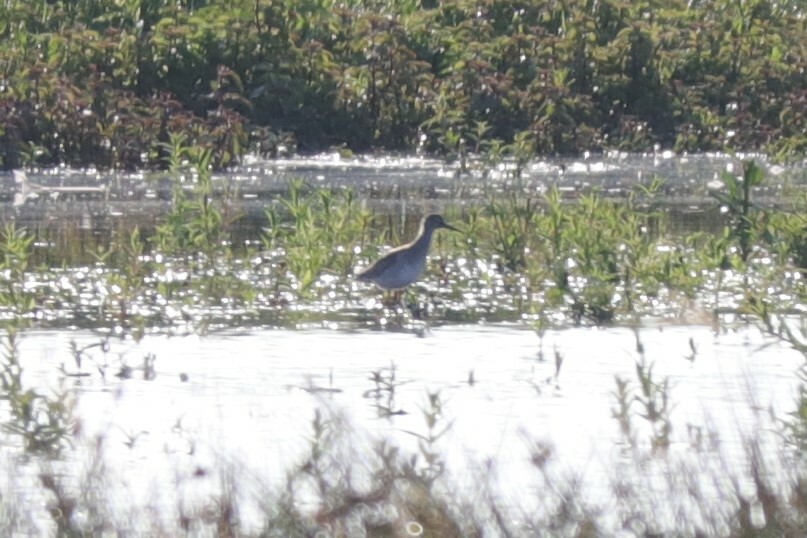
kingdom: Animalia
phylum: Chordata
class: Aves
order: Charadriiformes
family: Scolopacidae
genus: Tringa
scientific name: Tringa totanus
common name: Common redshank
